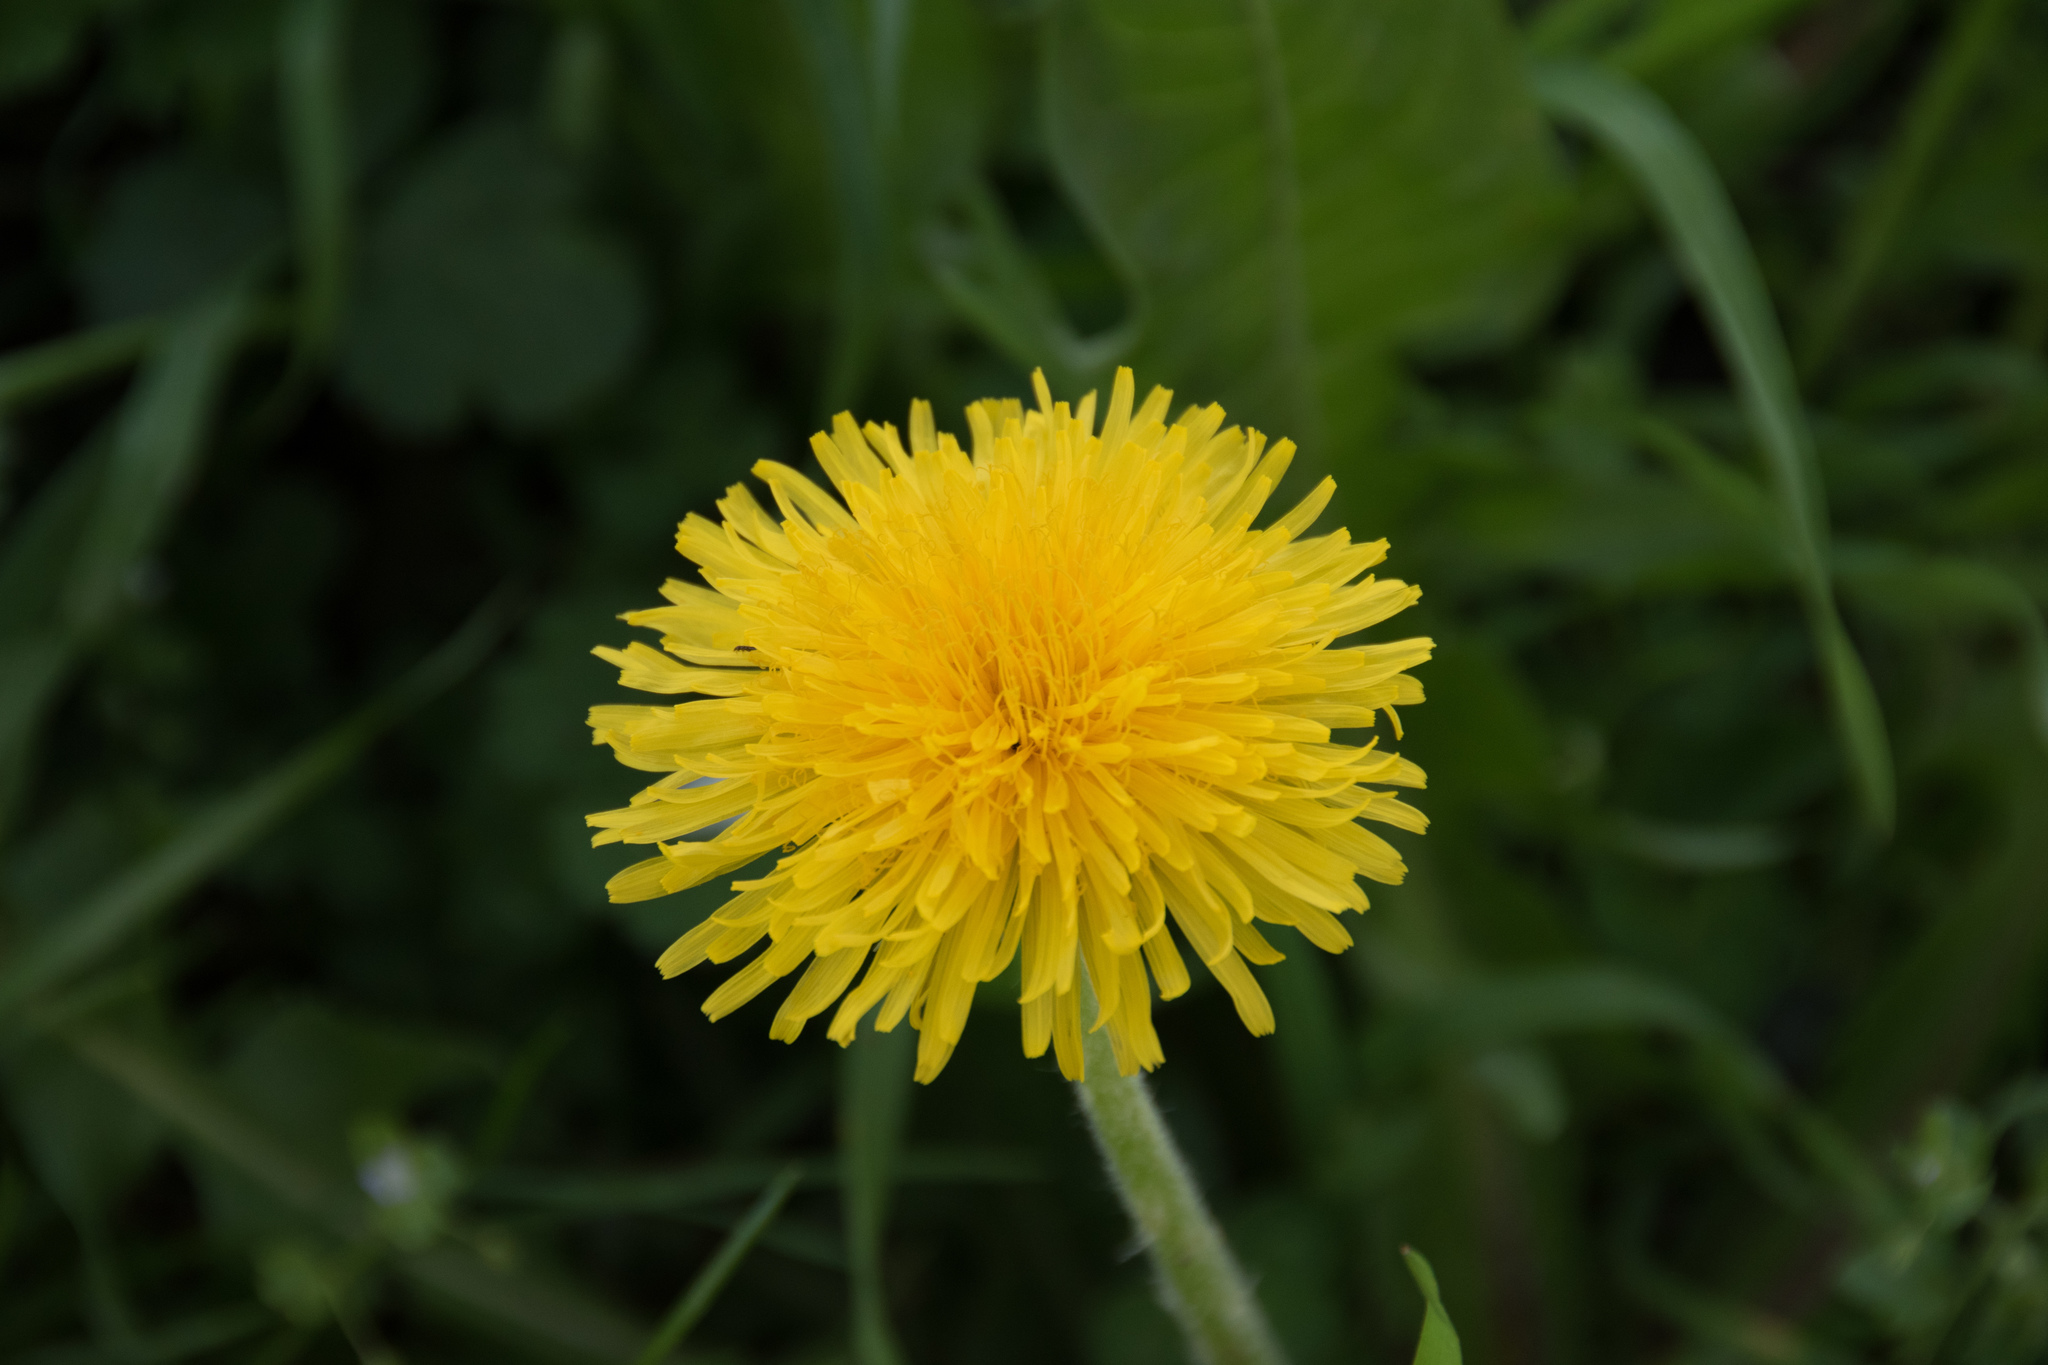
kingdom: Plantae
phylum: Tracheophyta
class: Magnoliopsida
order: Asterales
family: Asteraceae
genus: Taraxacum
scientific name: Taraxacum officinale
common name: Common dandelion
